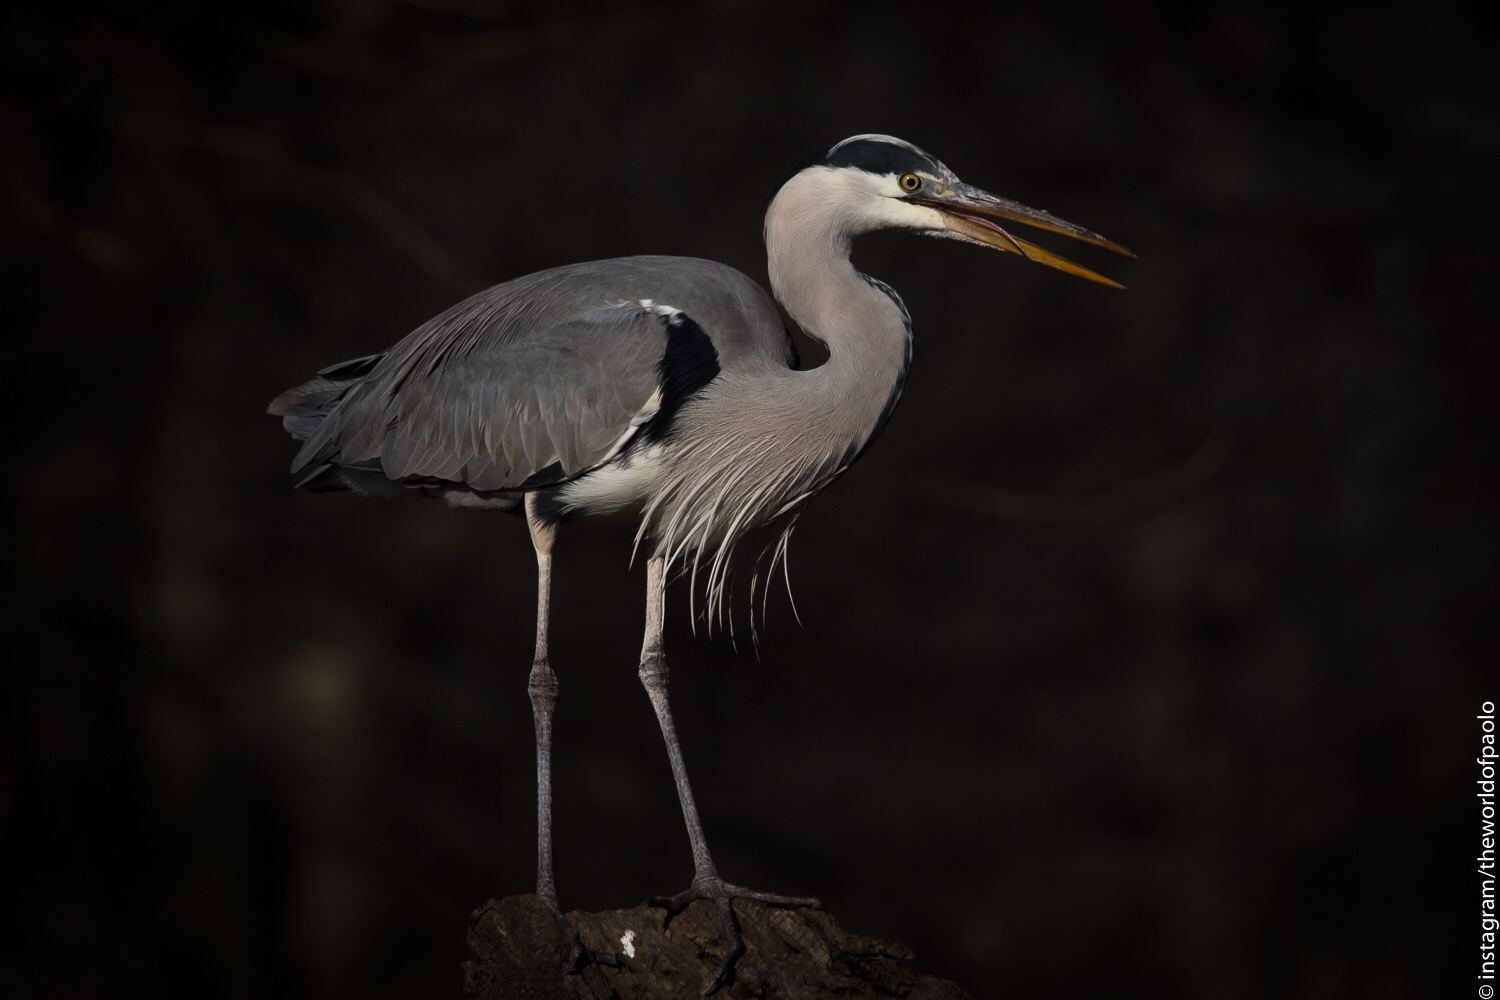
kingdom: Animalia
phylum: Chordata
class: Aves
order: Pelecaniformes
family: Ardeidae
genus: Ardea
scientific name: Ardea cinerea
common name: Grey heron
